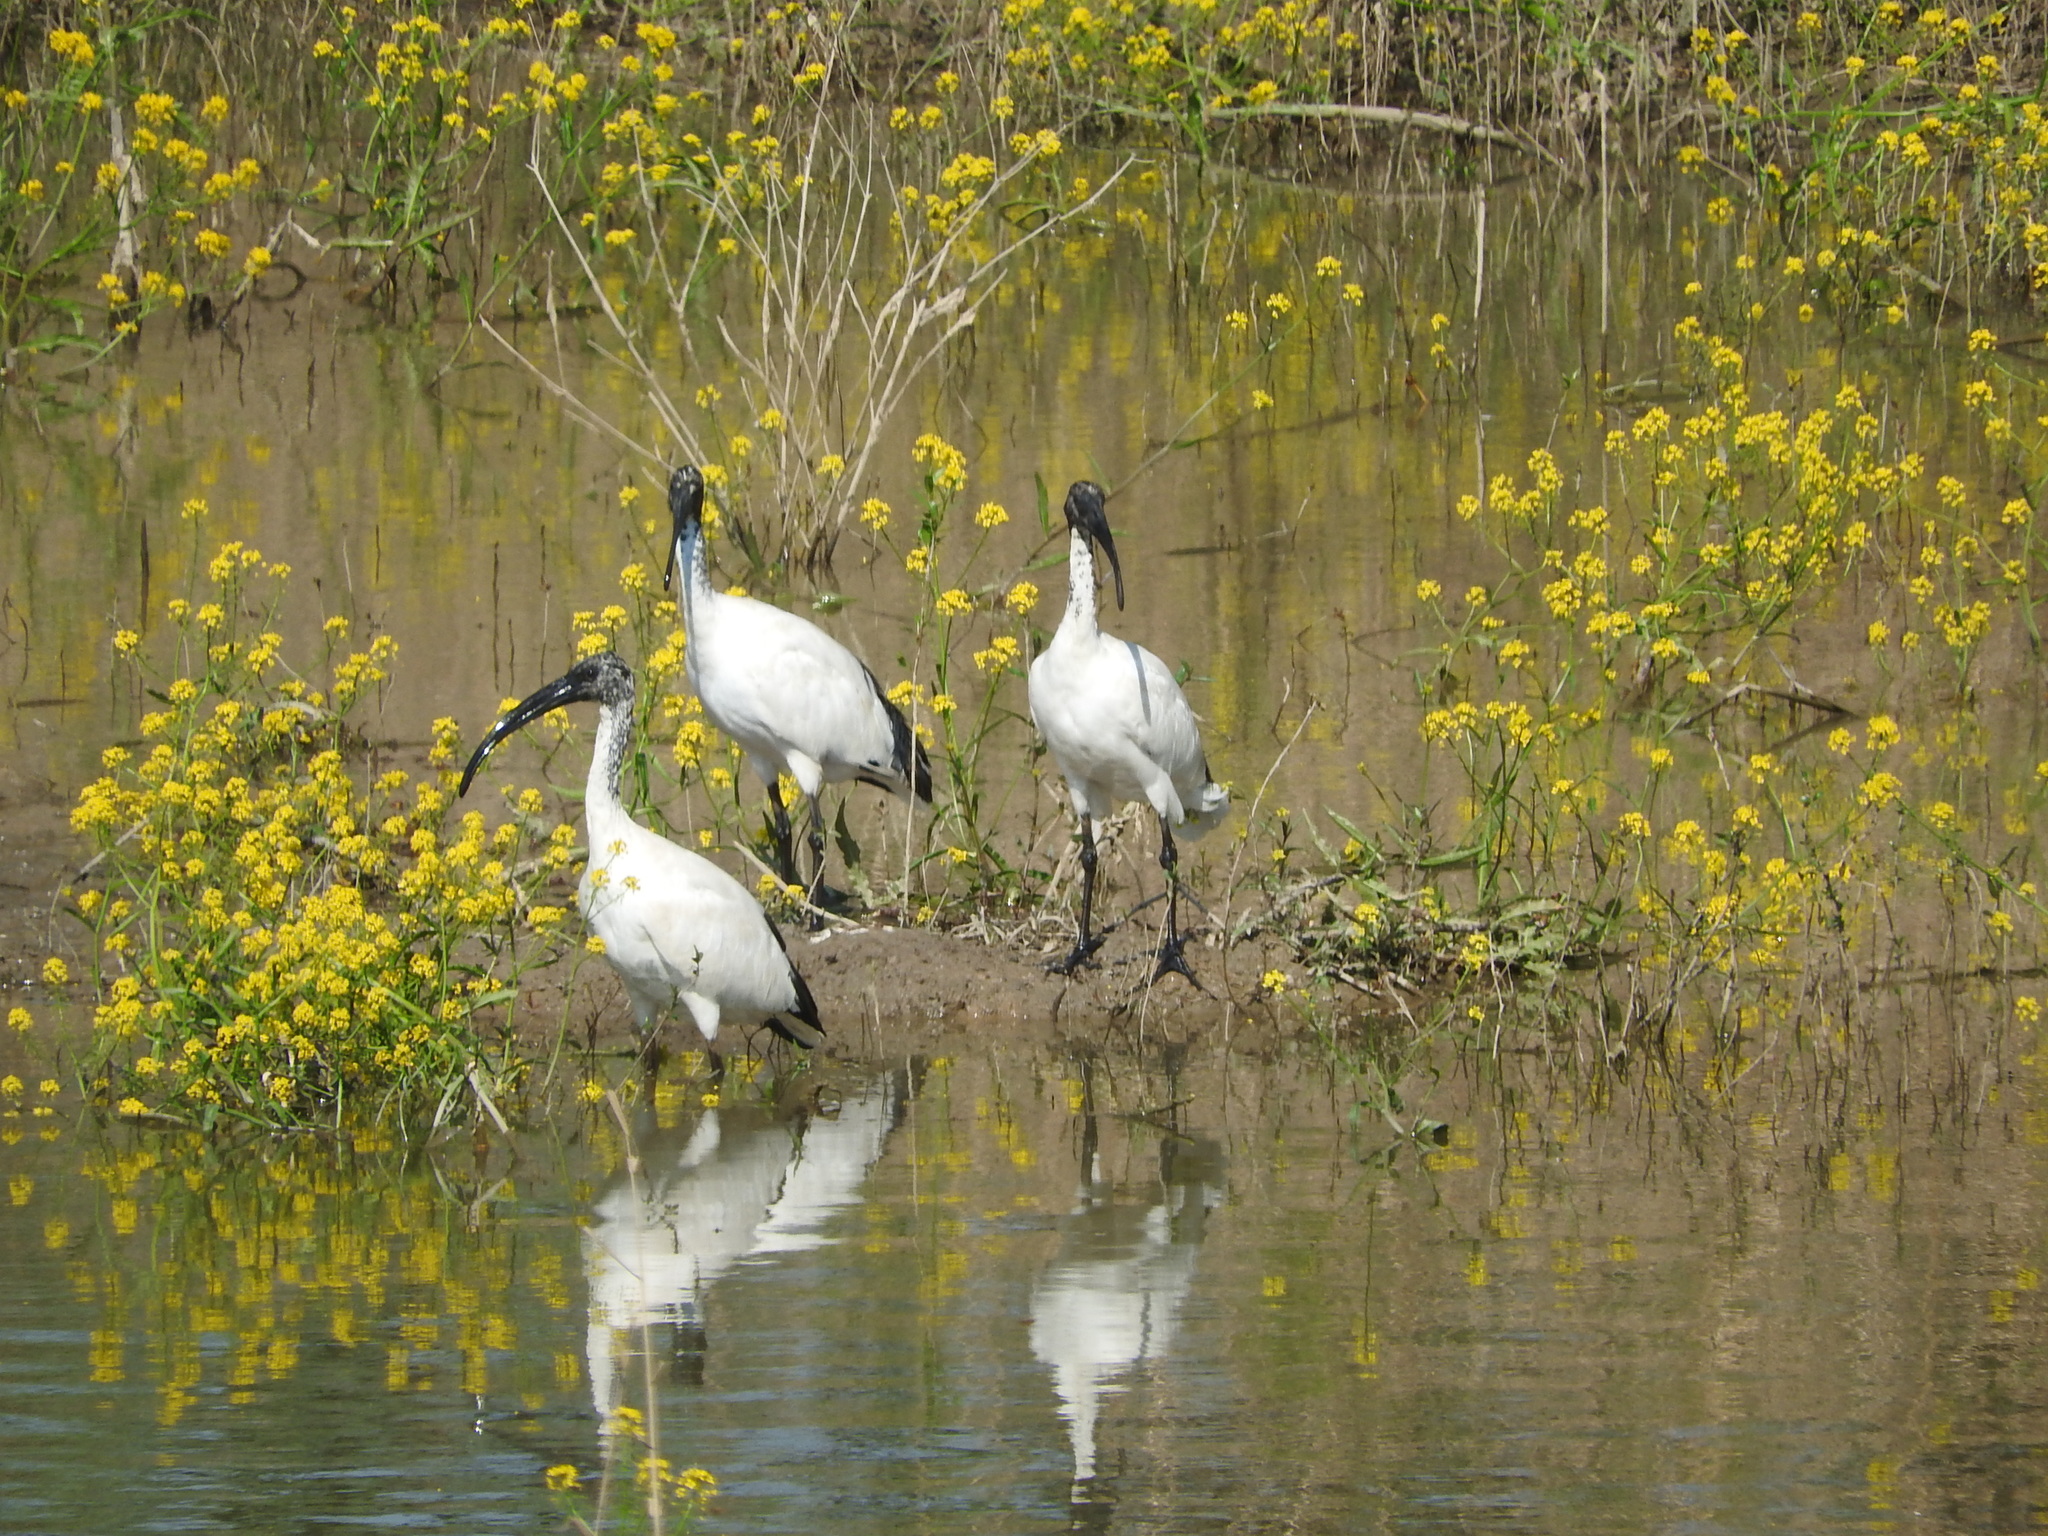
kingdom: Animalia
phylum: Chordata
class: Aves
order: Pelecaniformes
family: Threskiornithidae
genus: Threskiornis
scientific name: Threskiornis aethiopicus
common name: Sacred ibis
